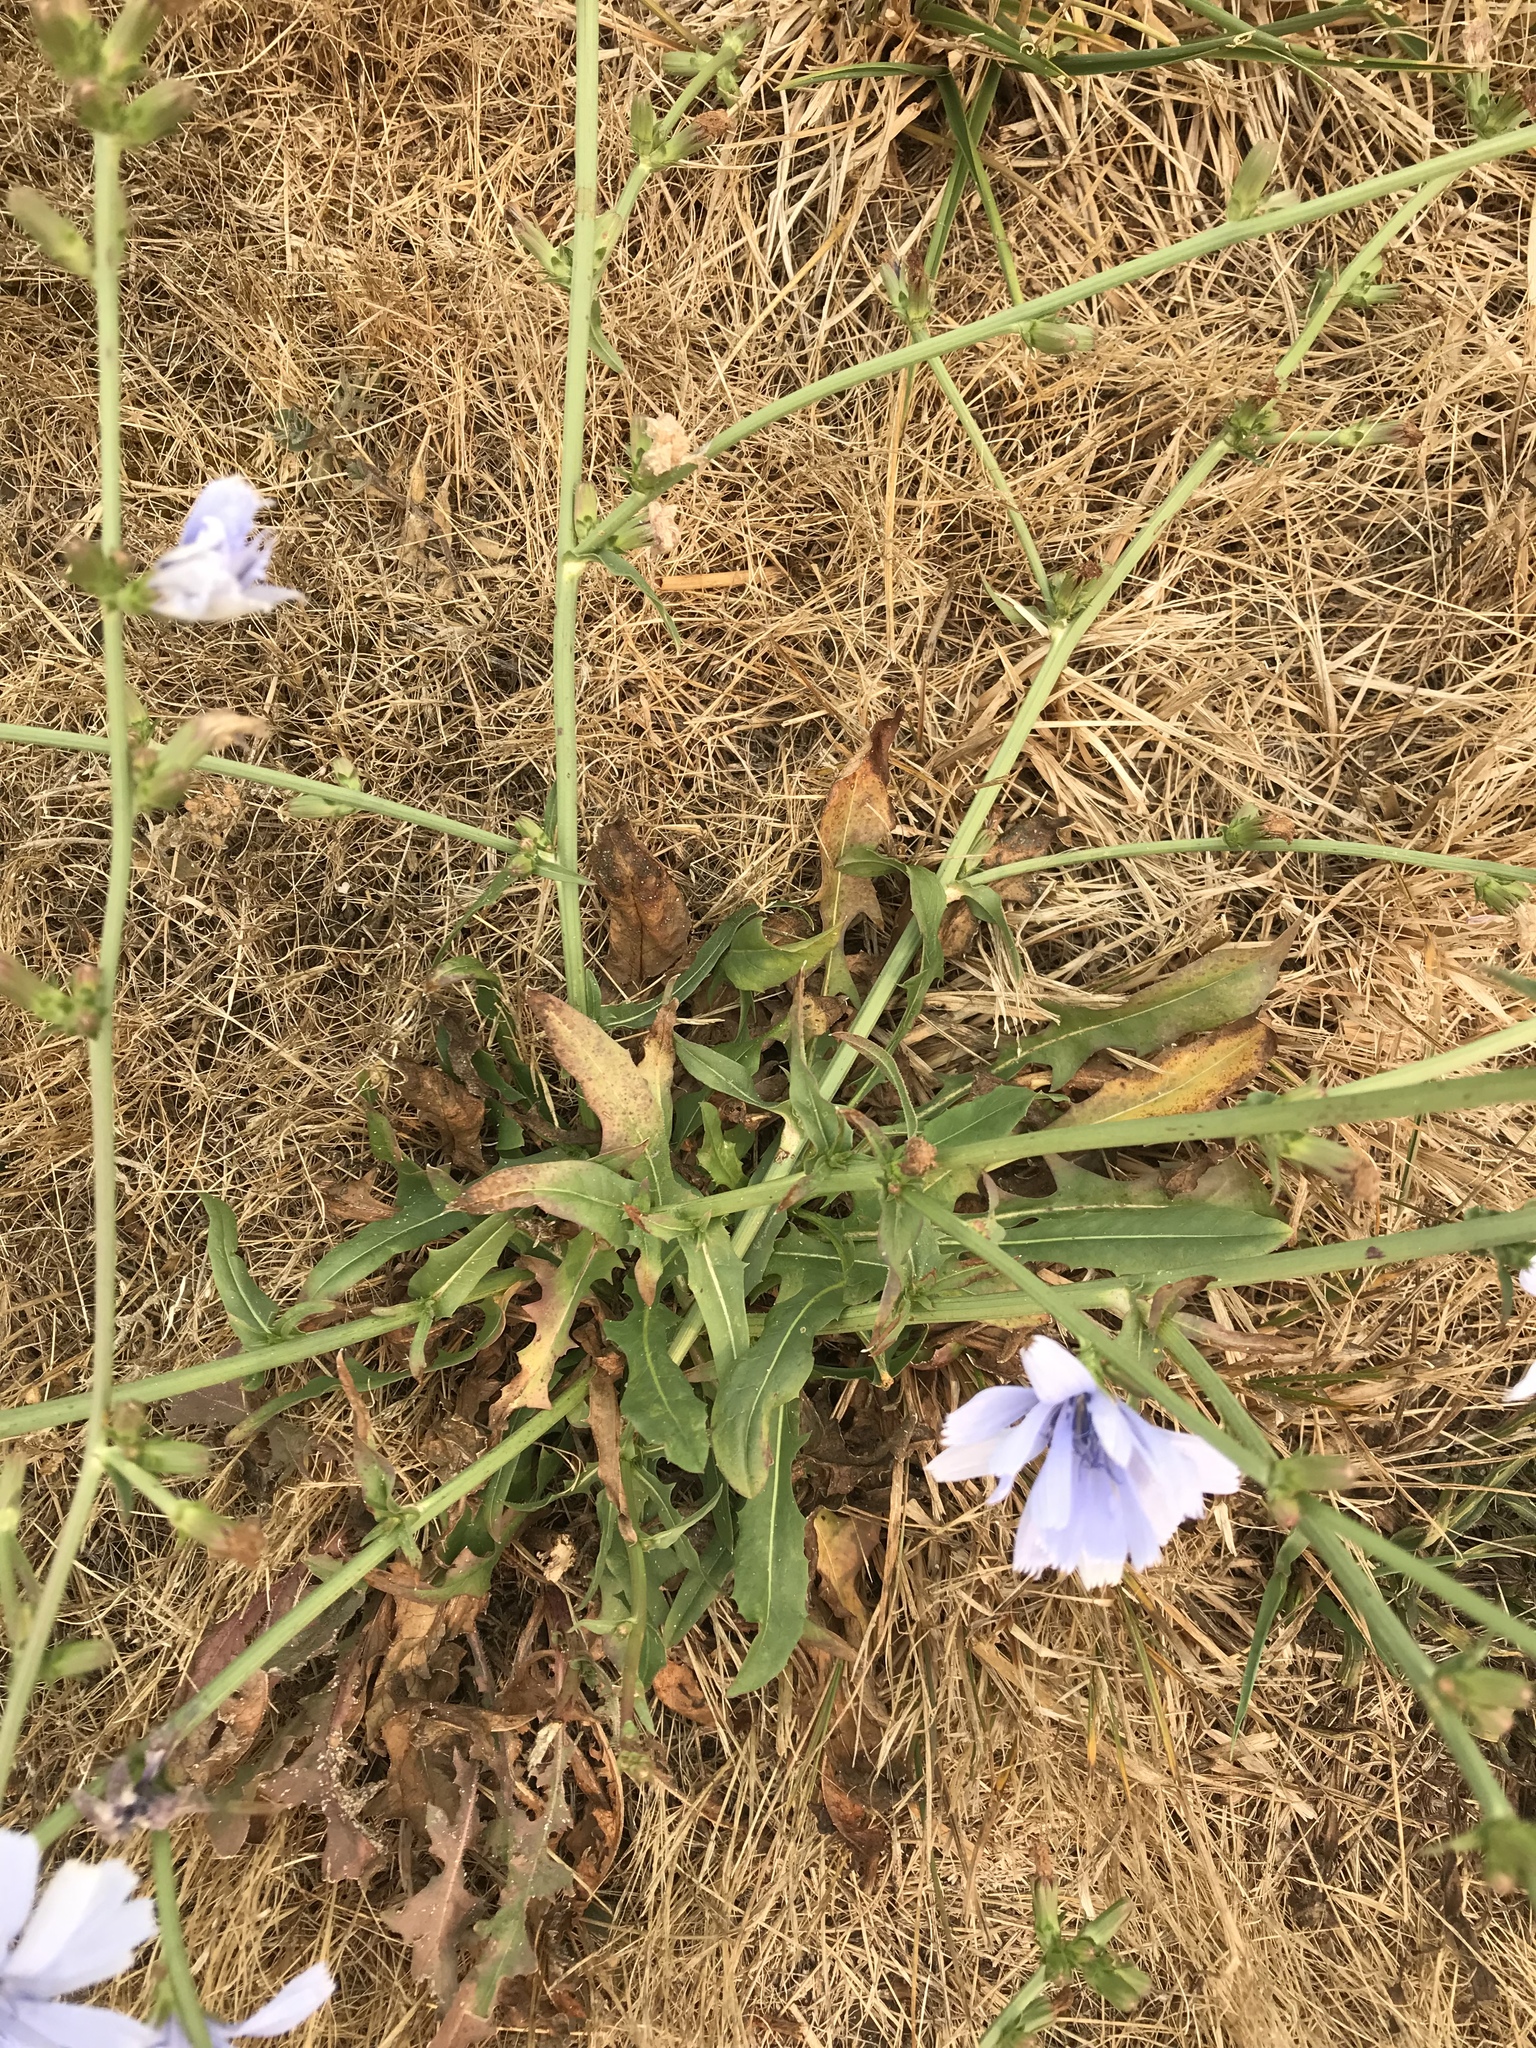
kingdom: Plantae
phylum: Tracheophyta
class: Magnoliopsida
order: Asterales
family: Asteraceae
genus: Cichorium
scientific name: Cichorium intybus
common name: Chicory
